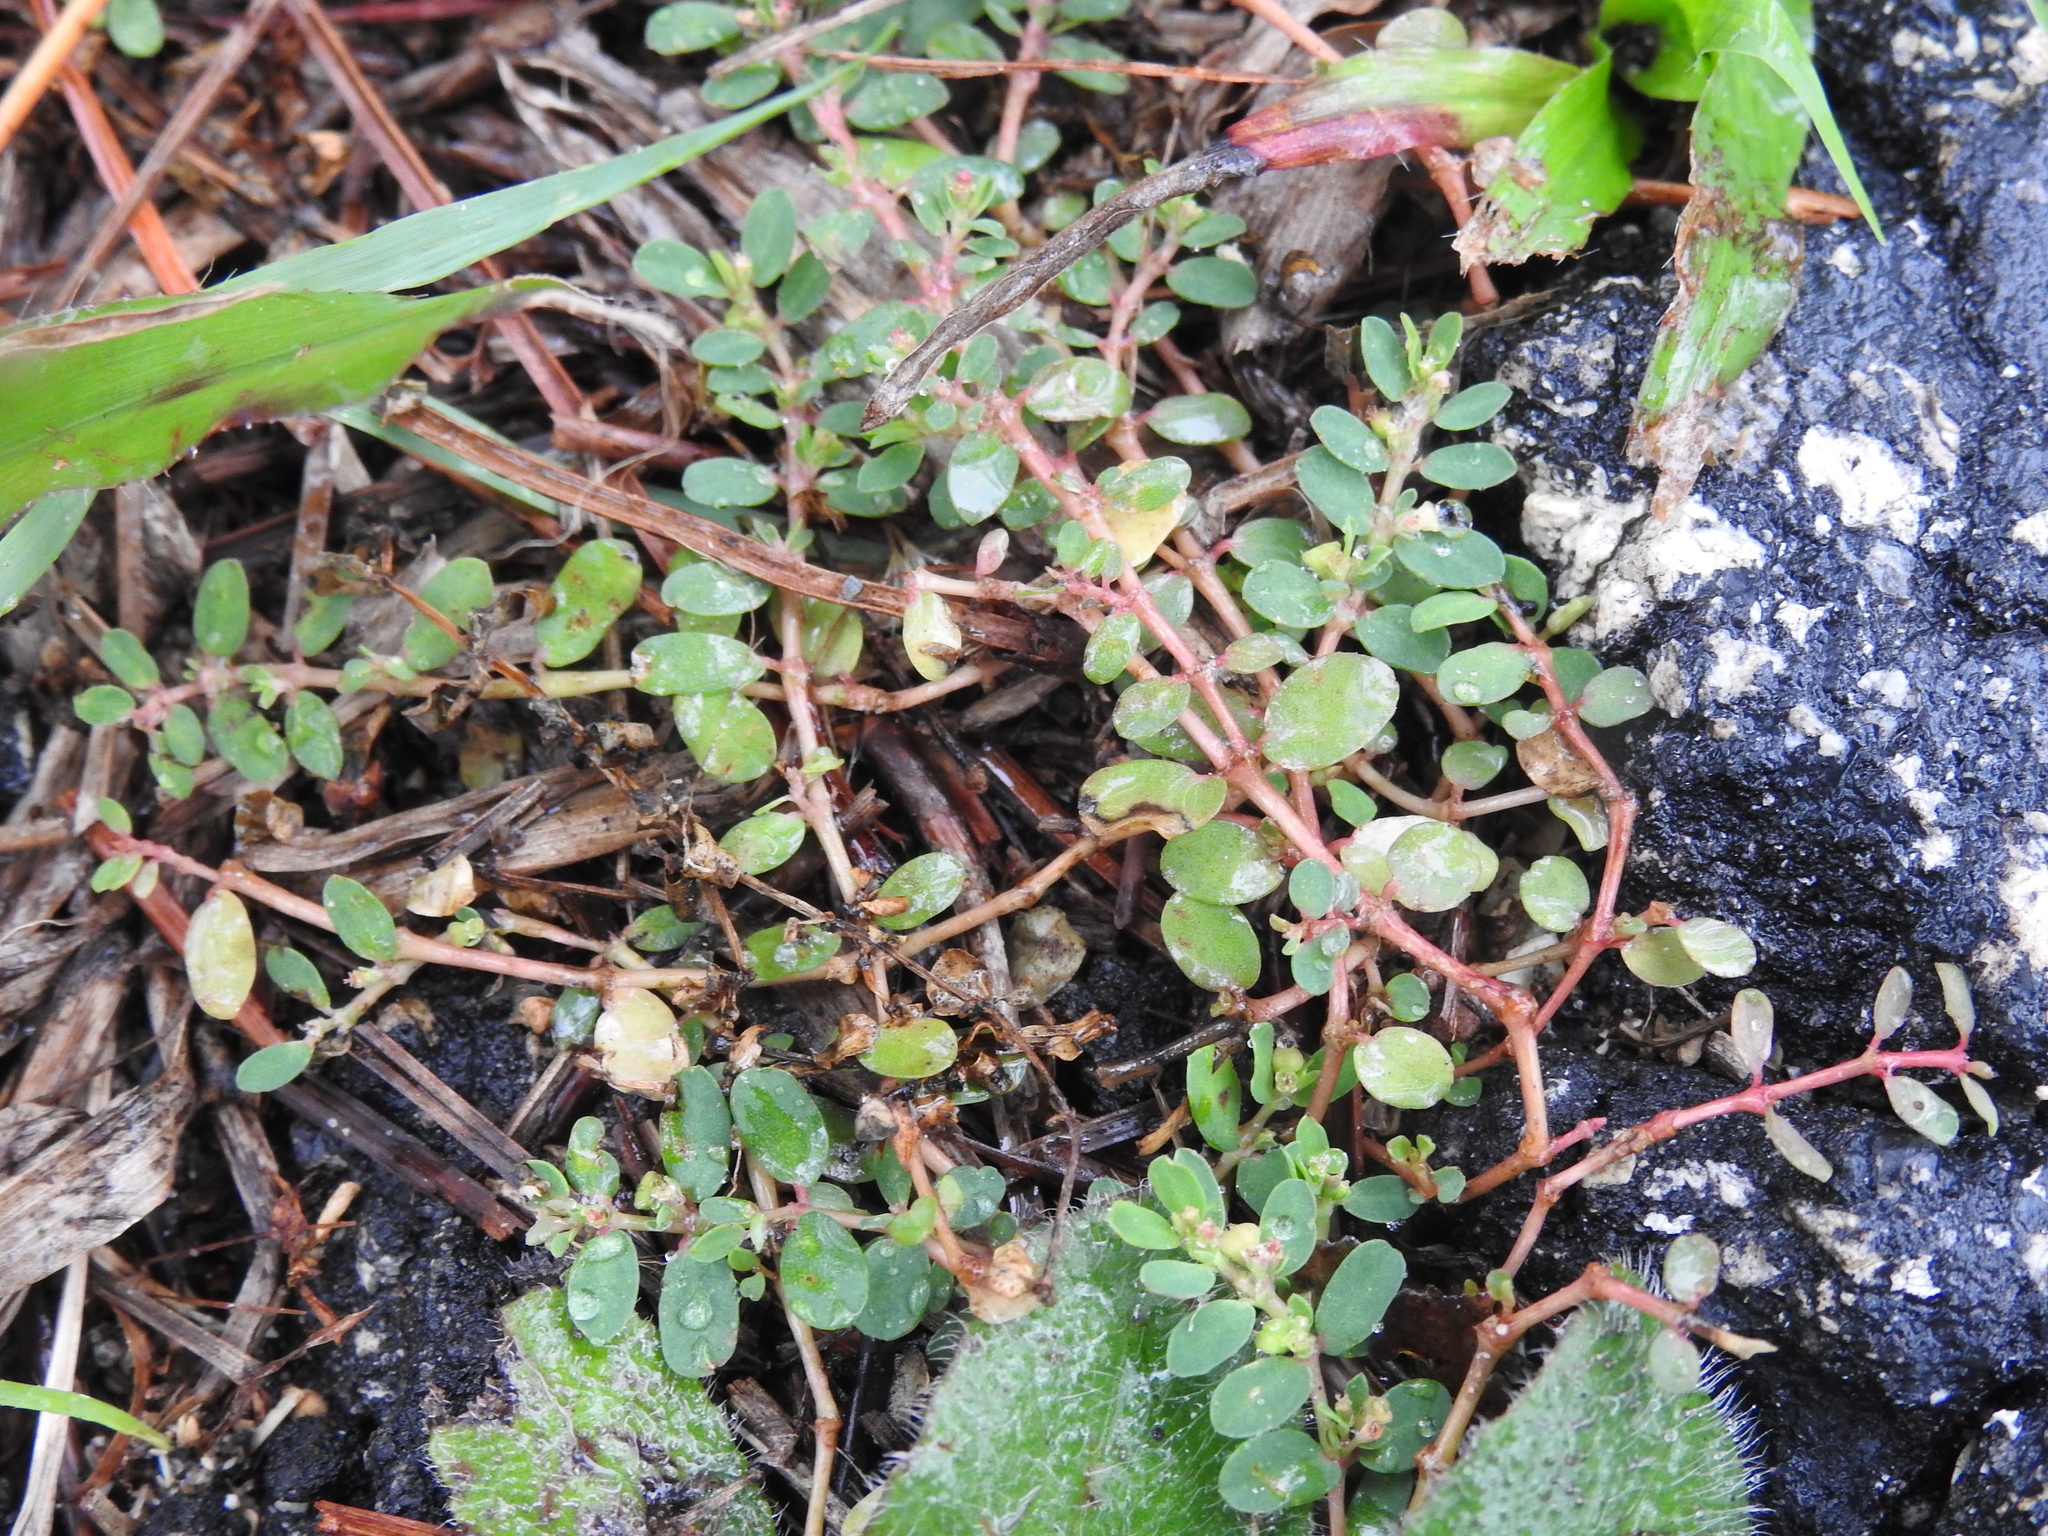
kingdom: Plantae
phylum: Tracheophyta
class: Magnoliopsida
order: Malpighiales
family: Euphorbiaceae
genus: Euphorbia
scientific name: Euphorbia serpens
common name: Matted sandmat
